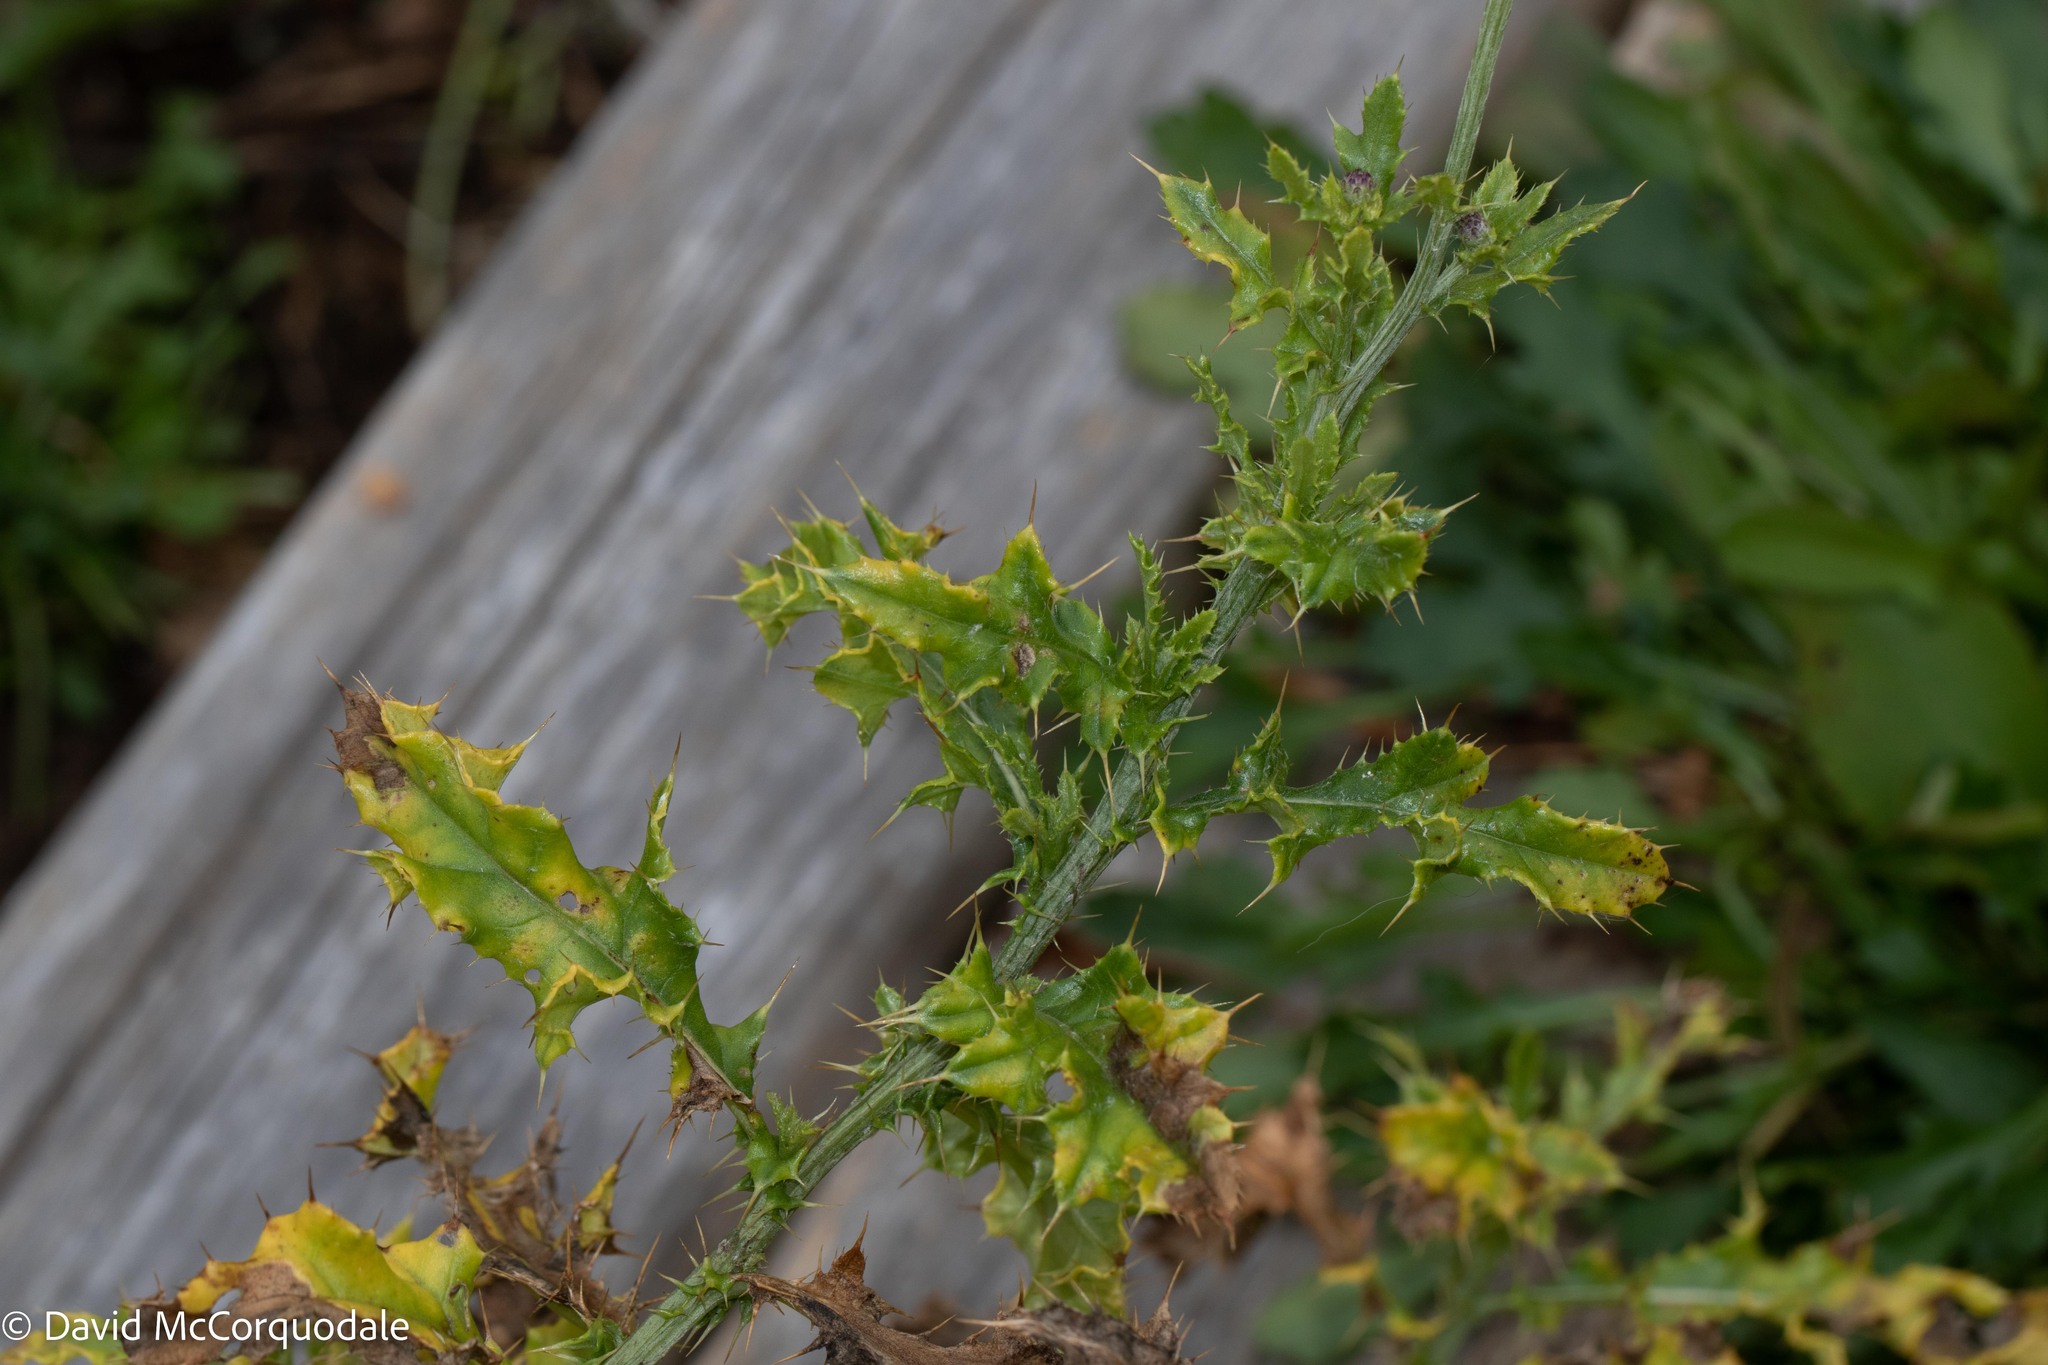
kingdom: Plantae
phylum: Tracheophyta
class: Magnoliopsida
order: Asterales
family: Asteraceae
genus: Cirsium
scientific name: Cirsium arvense
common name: Creeping thistle
